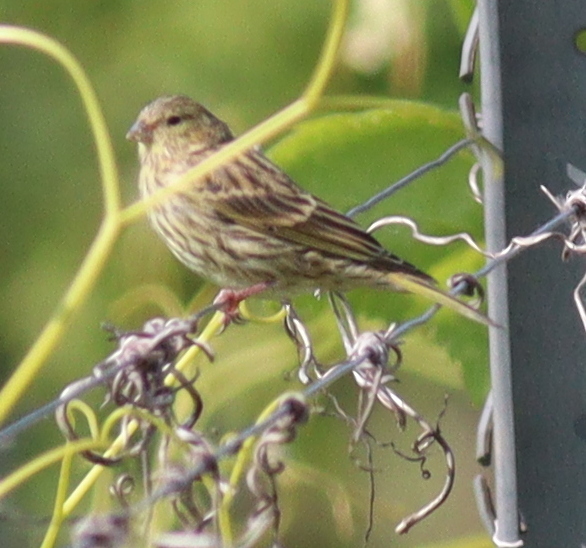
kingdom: Animalia
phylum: Chordata
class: Aves
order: Passeriformes
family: Fringillidae
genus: Serinus
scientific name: Serinus serinus
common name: European serin
